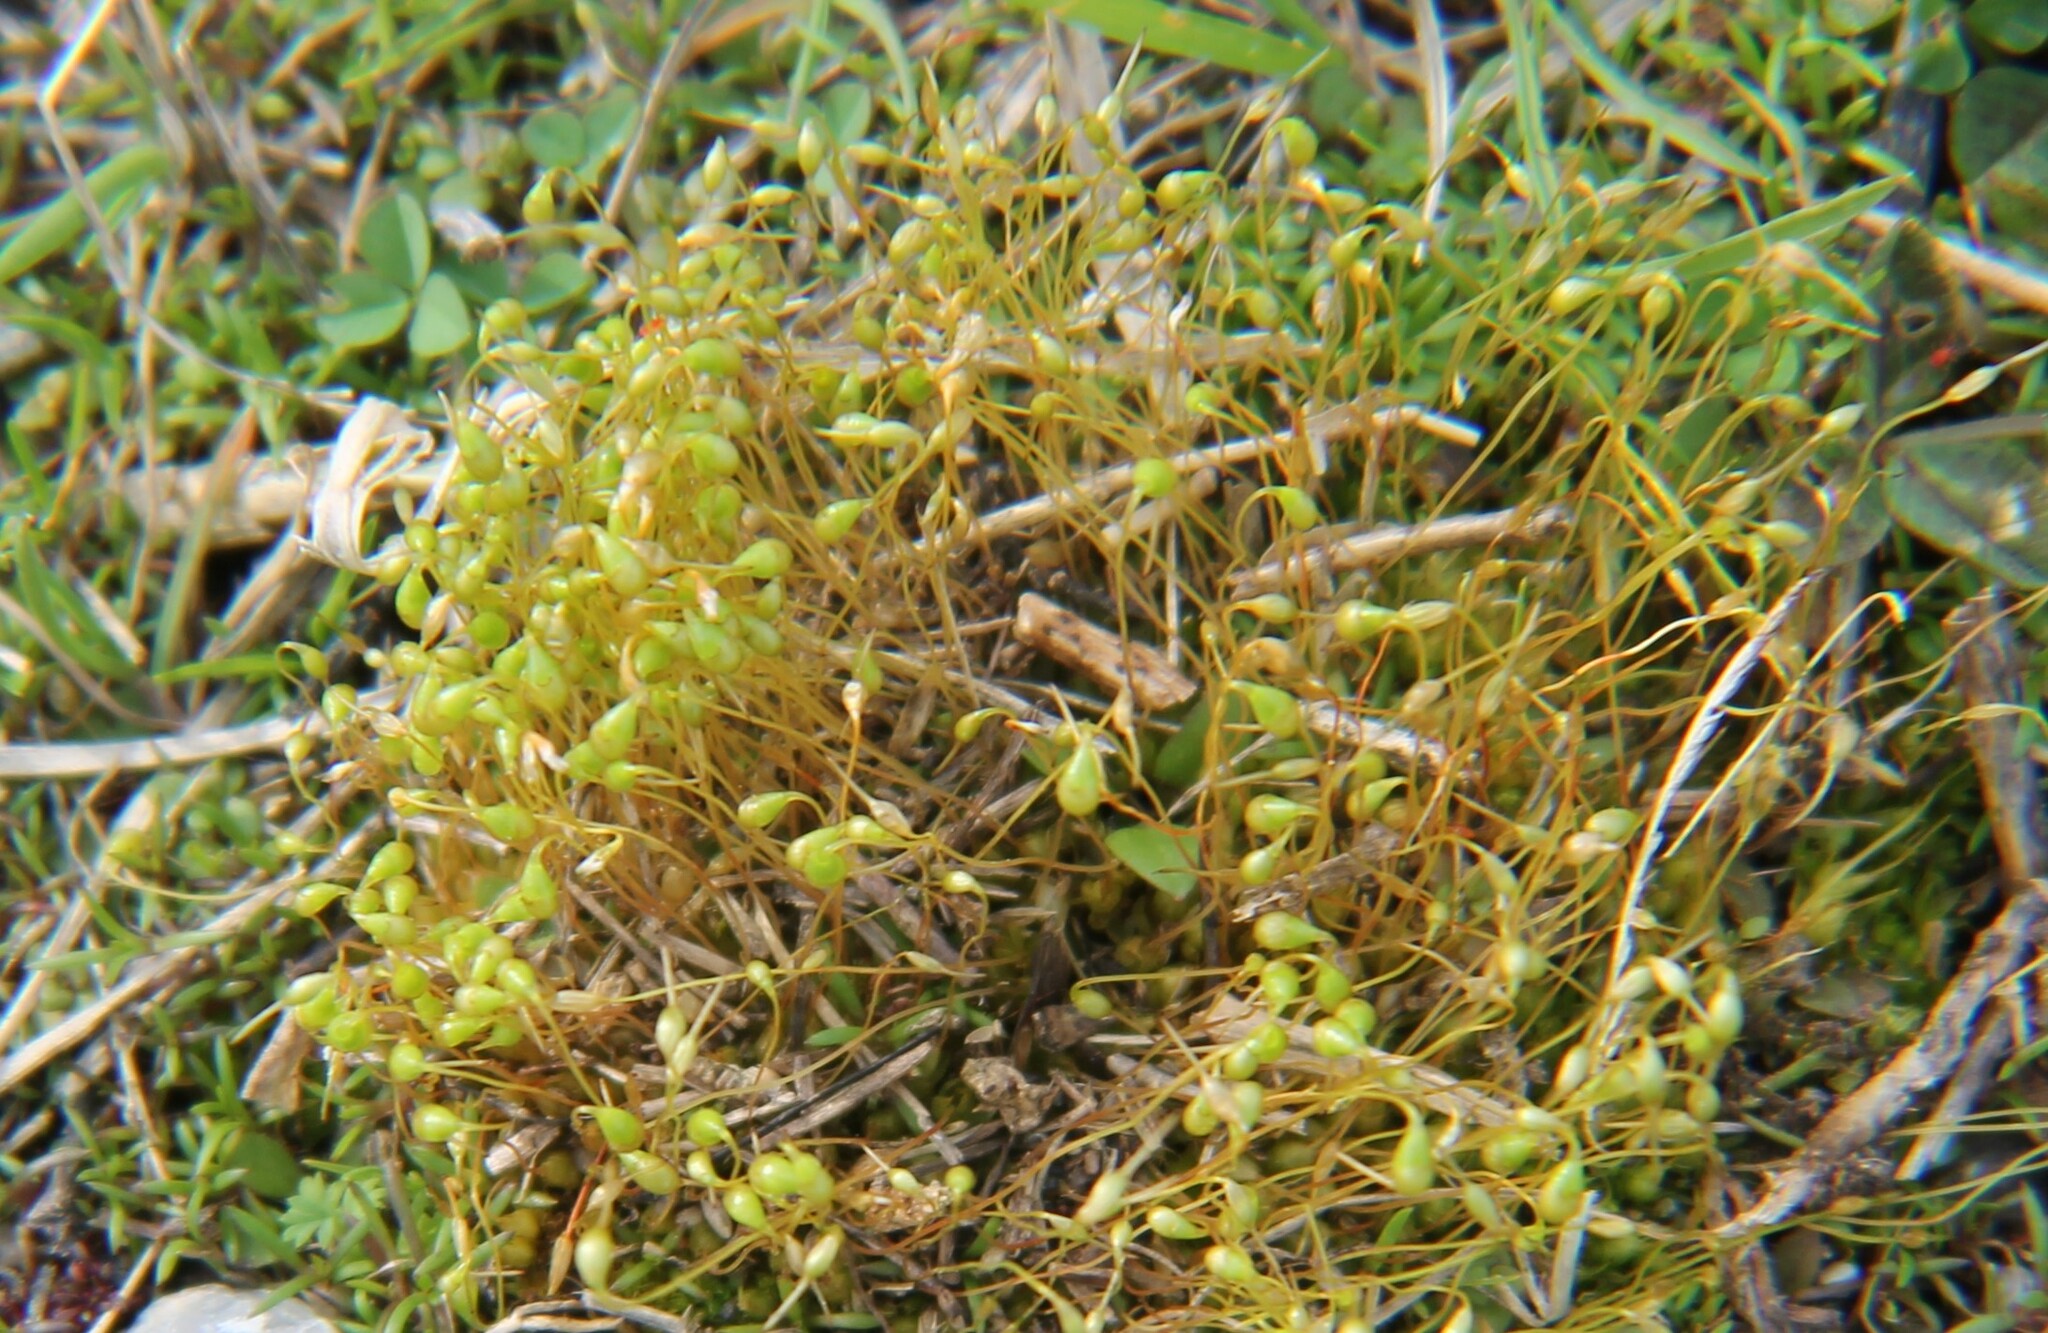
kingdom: Plantae
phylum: Bryophyta
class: Bryopsida
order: Funariales
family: Funariaceae
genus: Funaria
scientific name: Funaria hygrometrica
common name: Common cord moss
